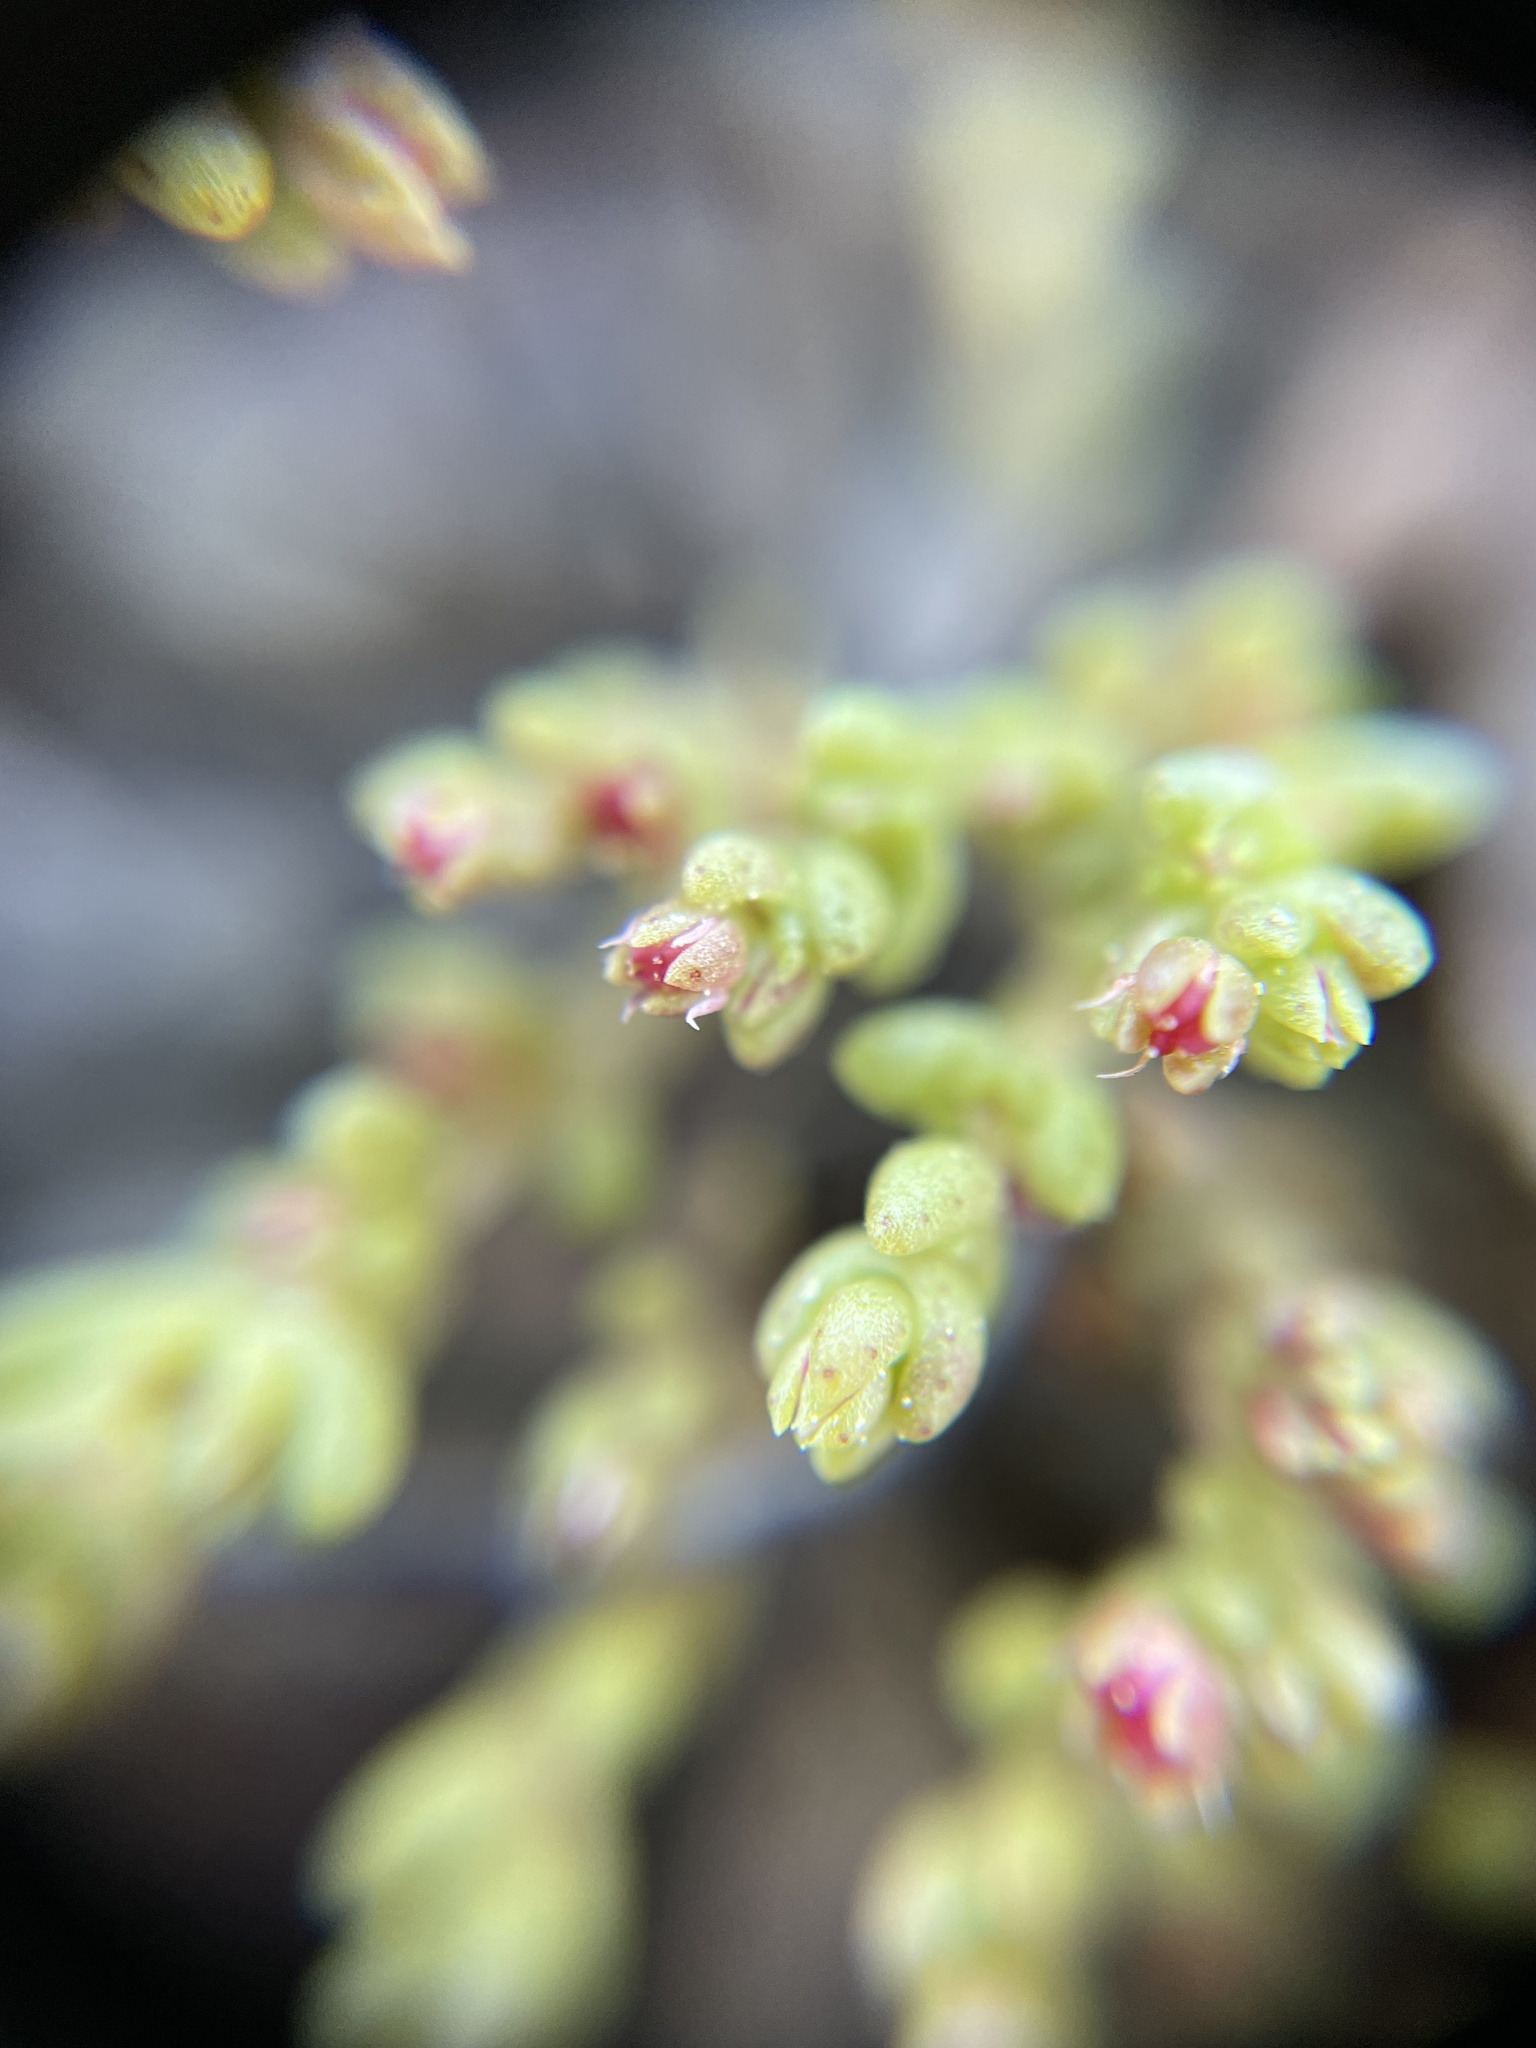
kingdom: Plantae
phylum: Tracheophyta
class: Magnoliopsida
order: Saxifragales
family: Crassulaceae
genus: Crassula
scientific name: Crassula connata
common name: Erect pygmyweed
